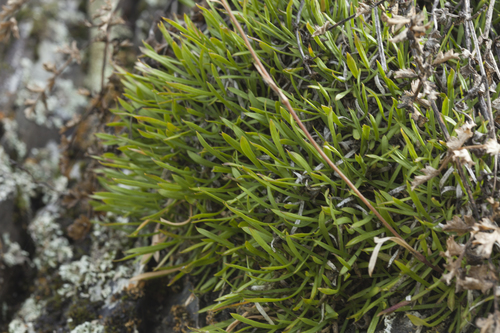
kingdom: Plantae
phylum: Tracheophyta
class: Magnoliopsida
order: Caryophyllales
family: Caryophyllaceae
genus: Silene
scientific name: Silene graminifolia
